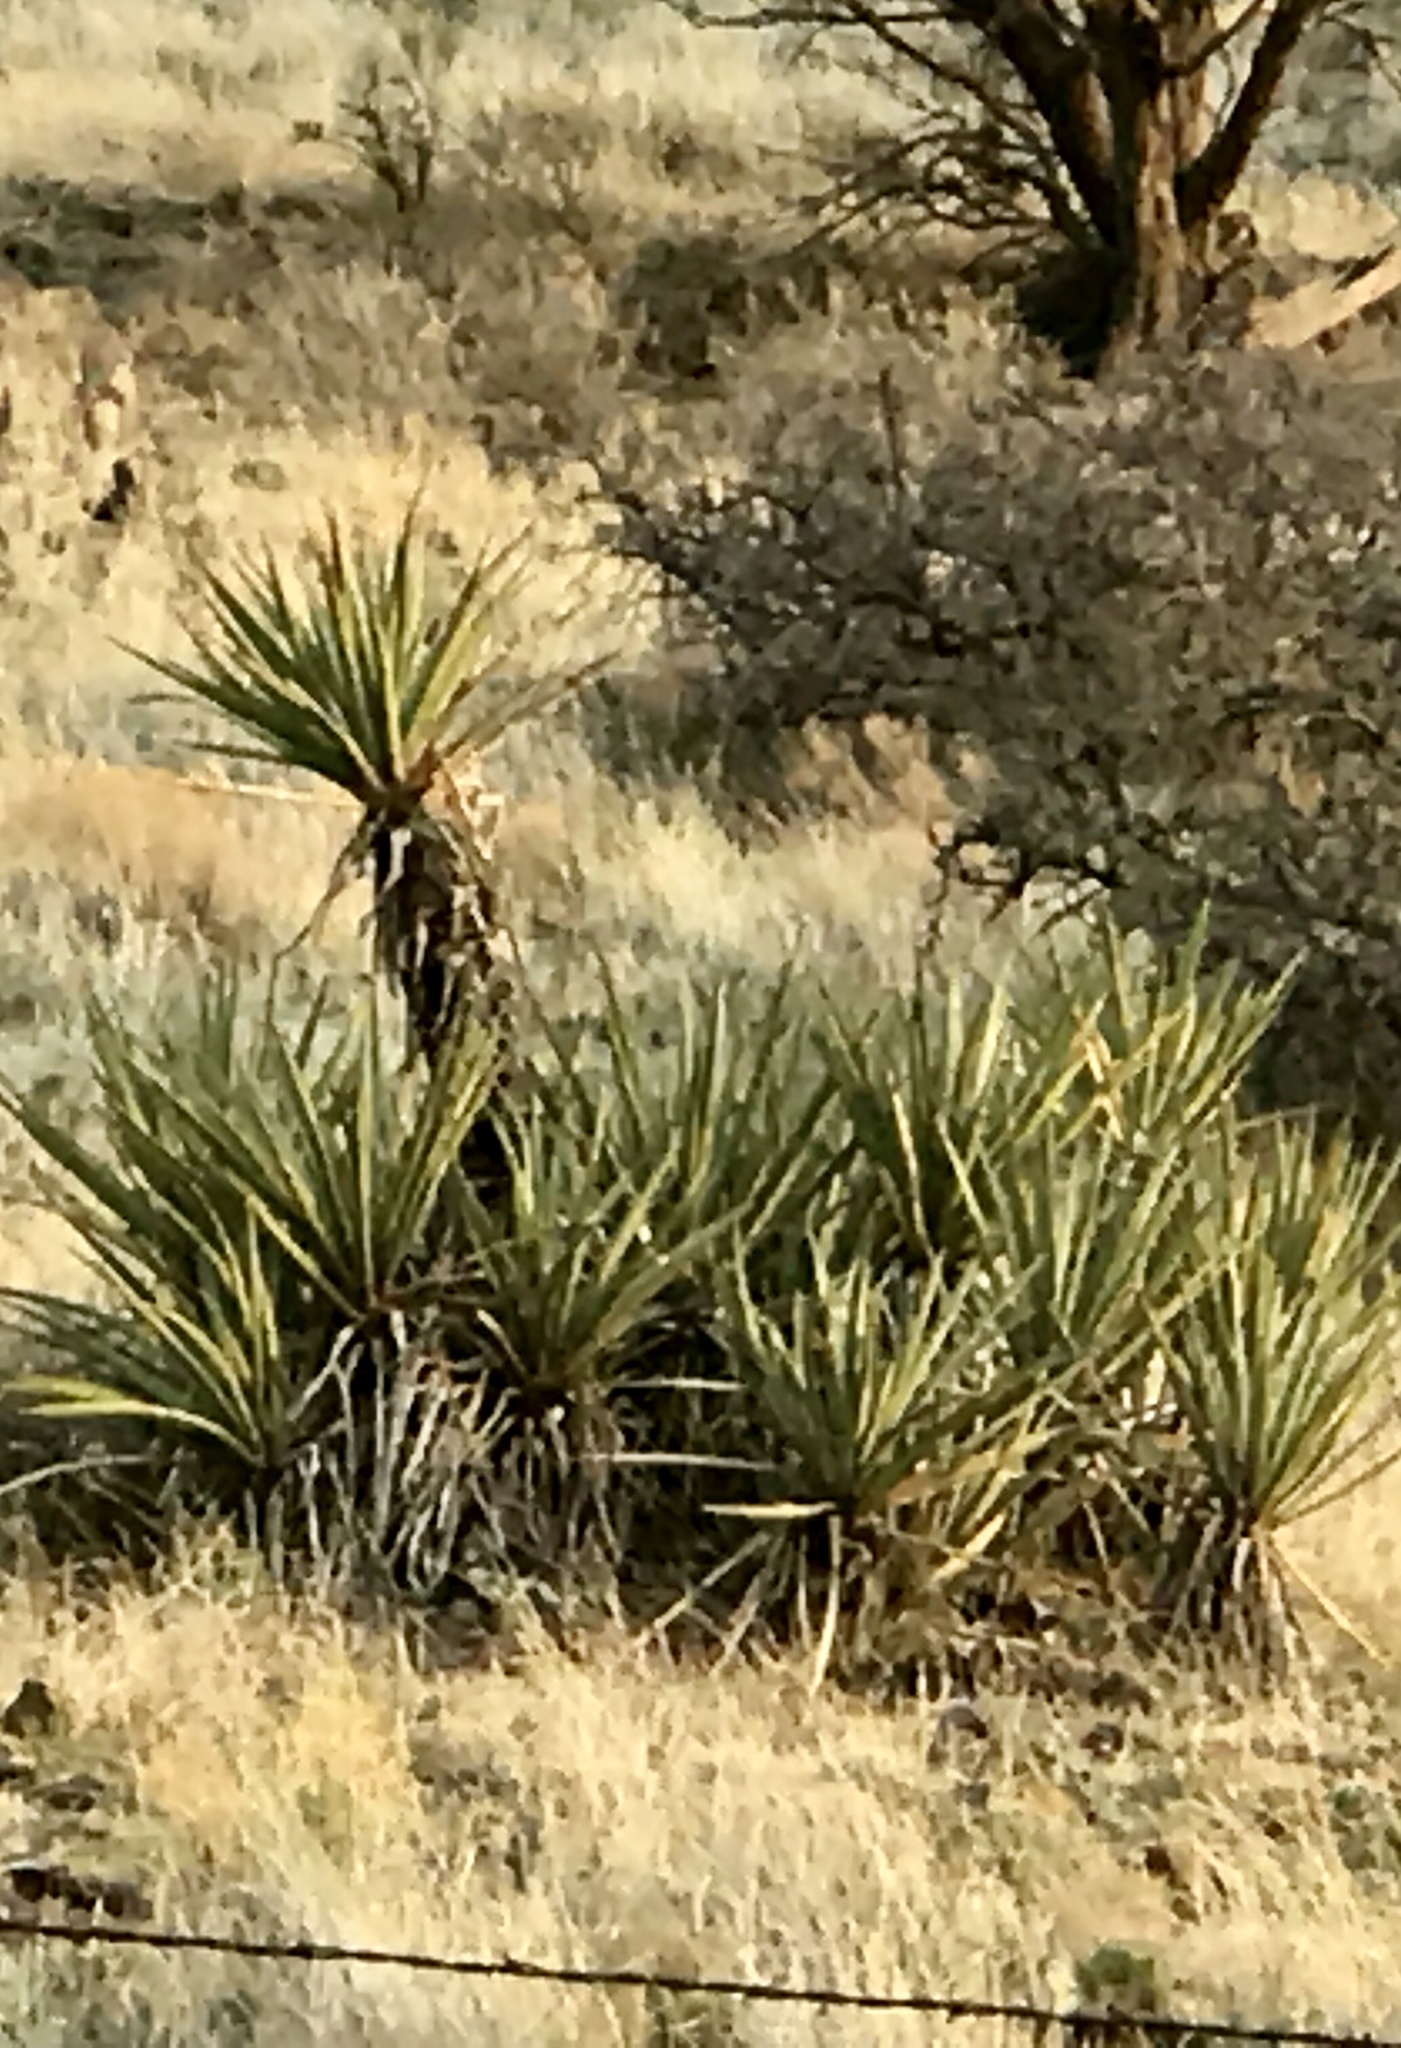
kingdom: Plantae
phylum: Tracheophyta
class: Liliopsida
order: Asparagales
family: Asparagaceae
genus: Yucca
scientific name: Yucca baccata
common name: Banana yucca
